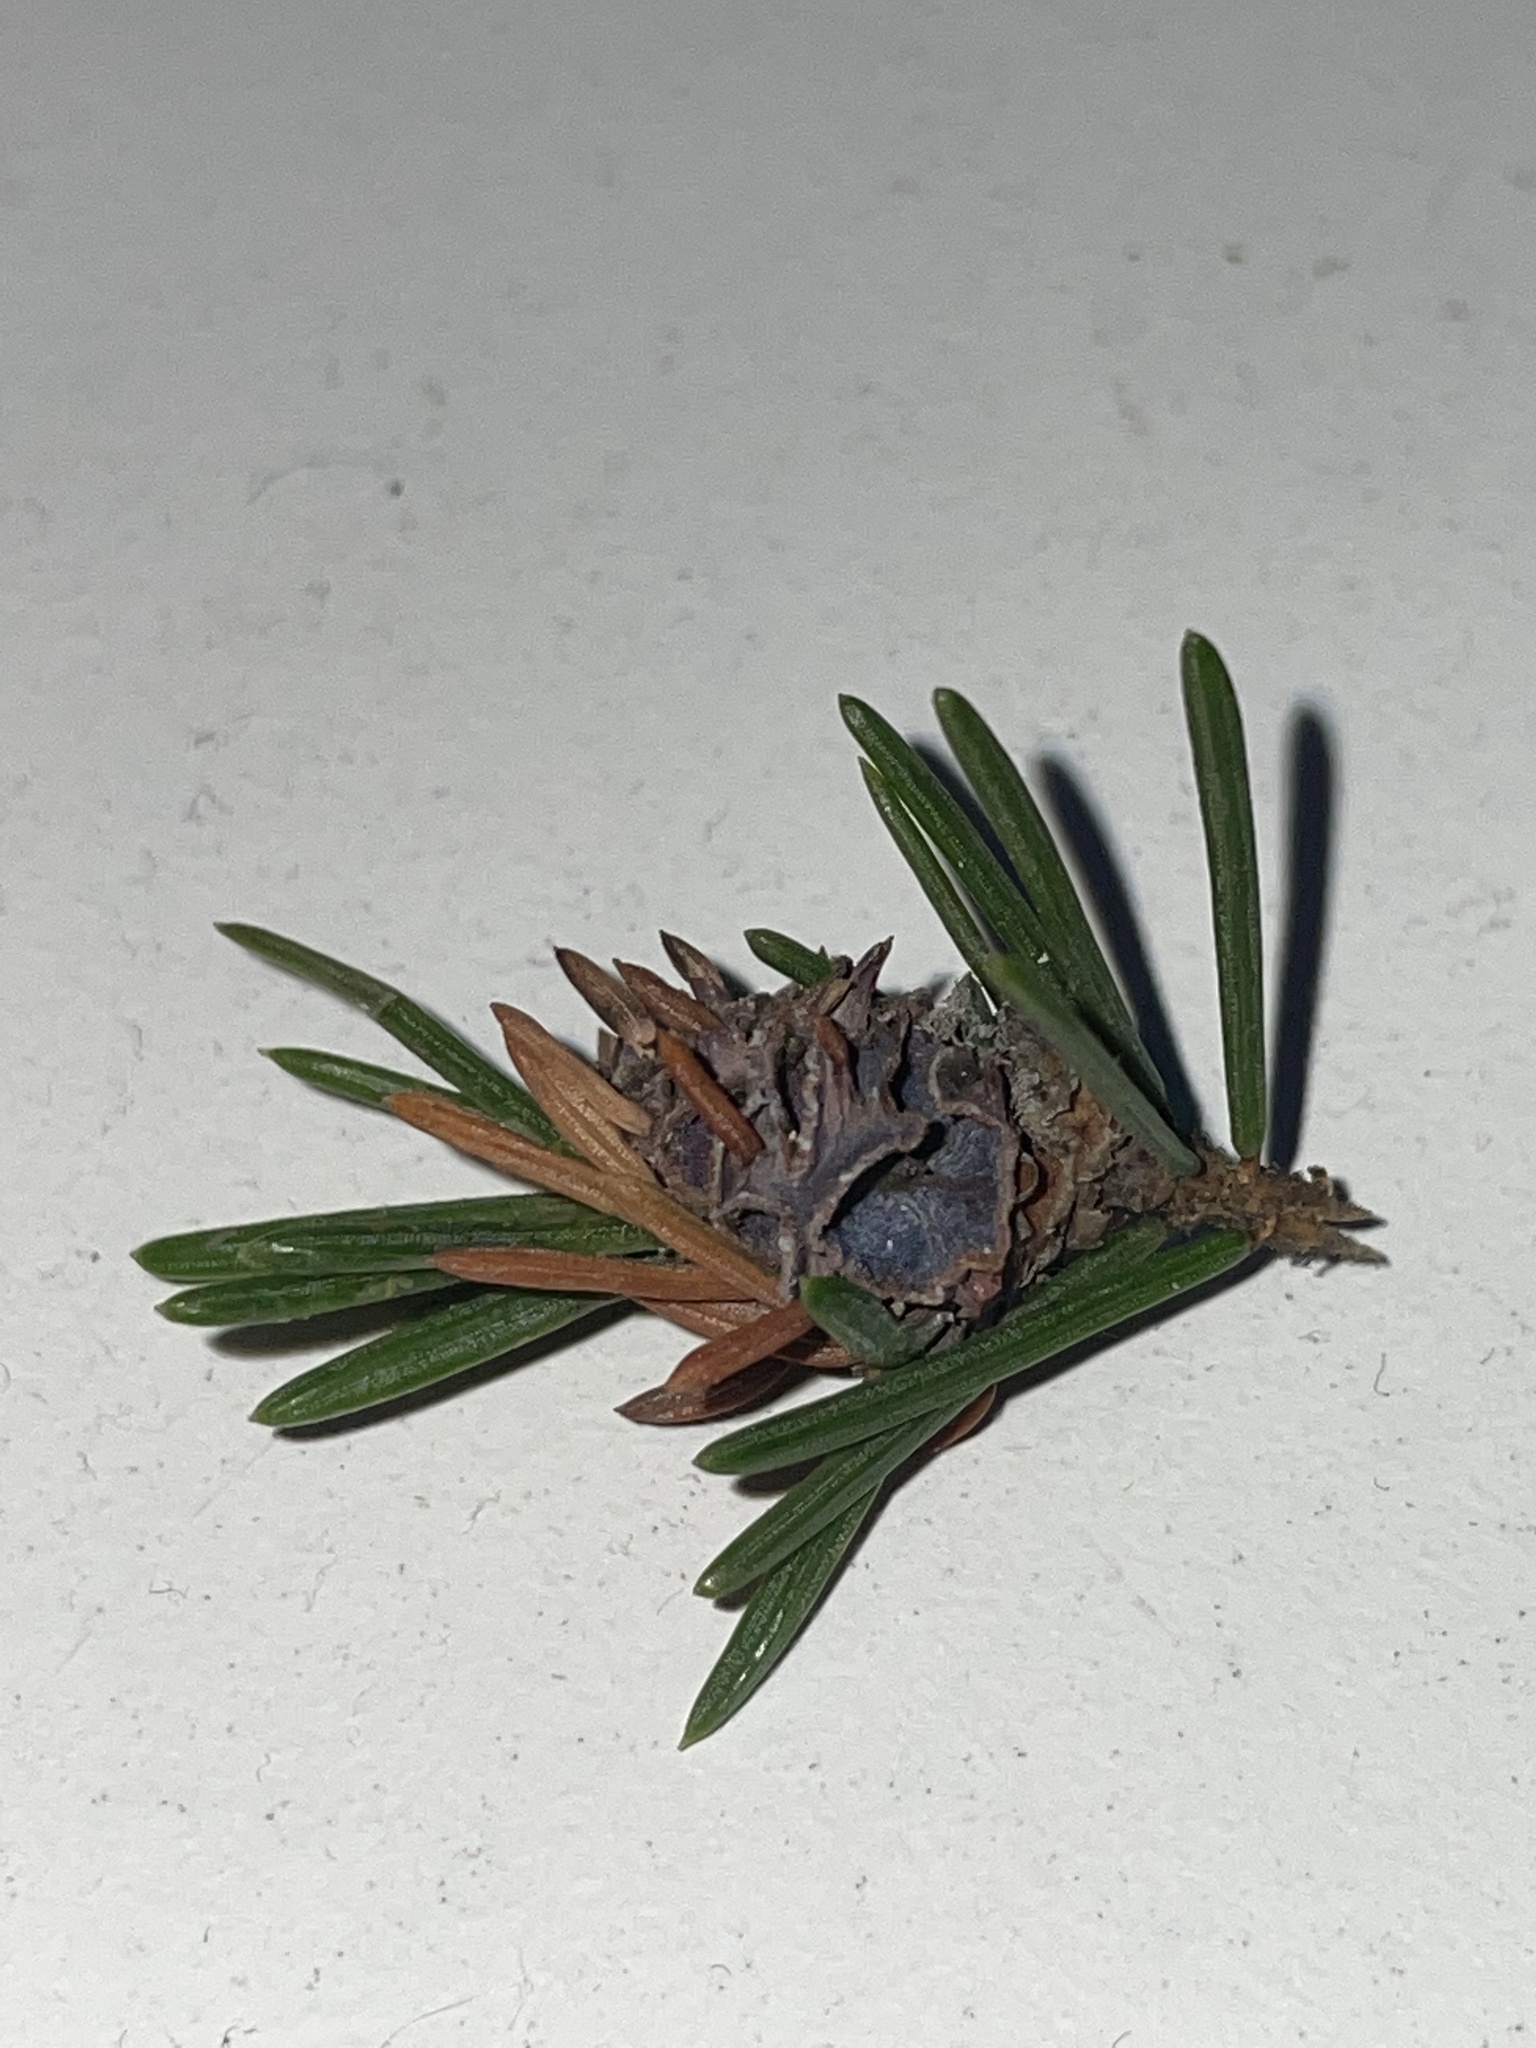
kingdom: Animalia
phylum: Arthropoda
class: Insecta
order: Hemiptera
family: Adelgidae
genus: Adelges
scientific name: Adelges abietis
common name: Eastern spruce gall adelgid
